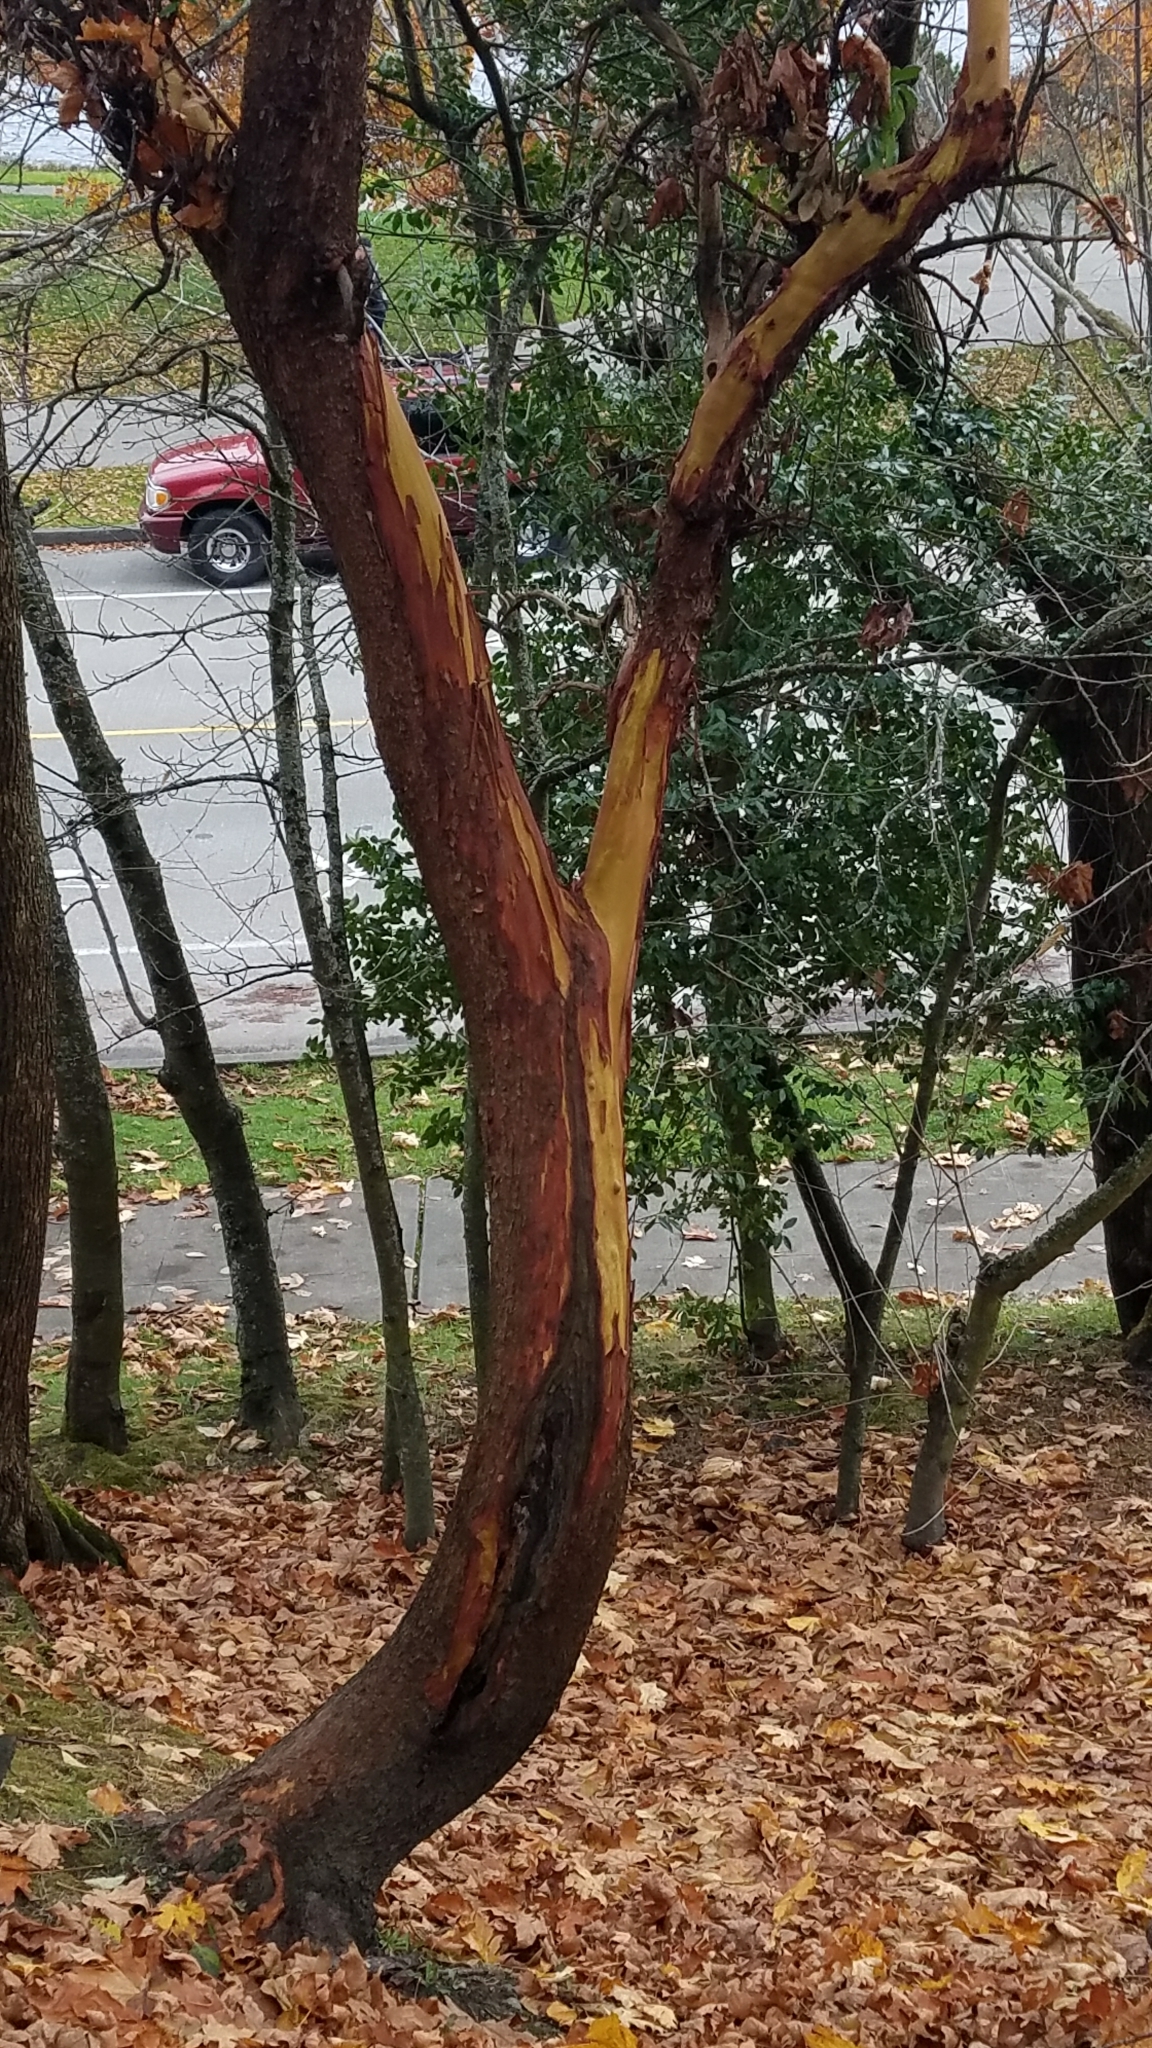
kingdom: Plantae
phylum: Tracheophyta
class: Magnoliopsida
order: Ericales
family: Ericaceae
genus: Arbutus
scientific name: Arbutus menziesii
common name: Pacific madrone
